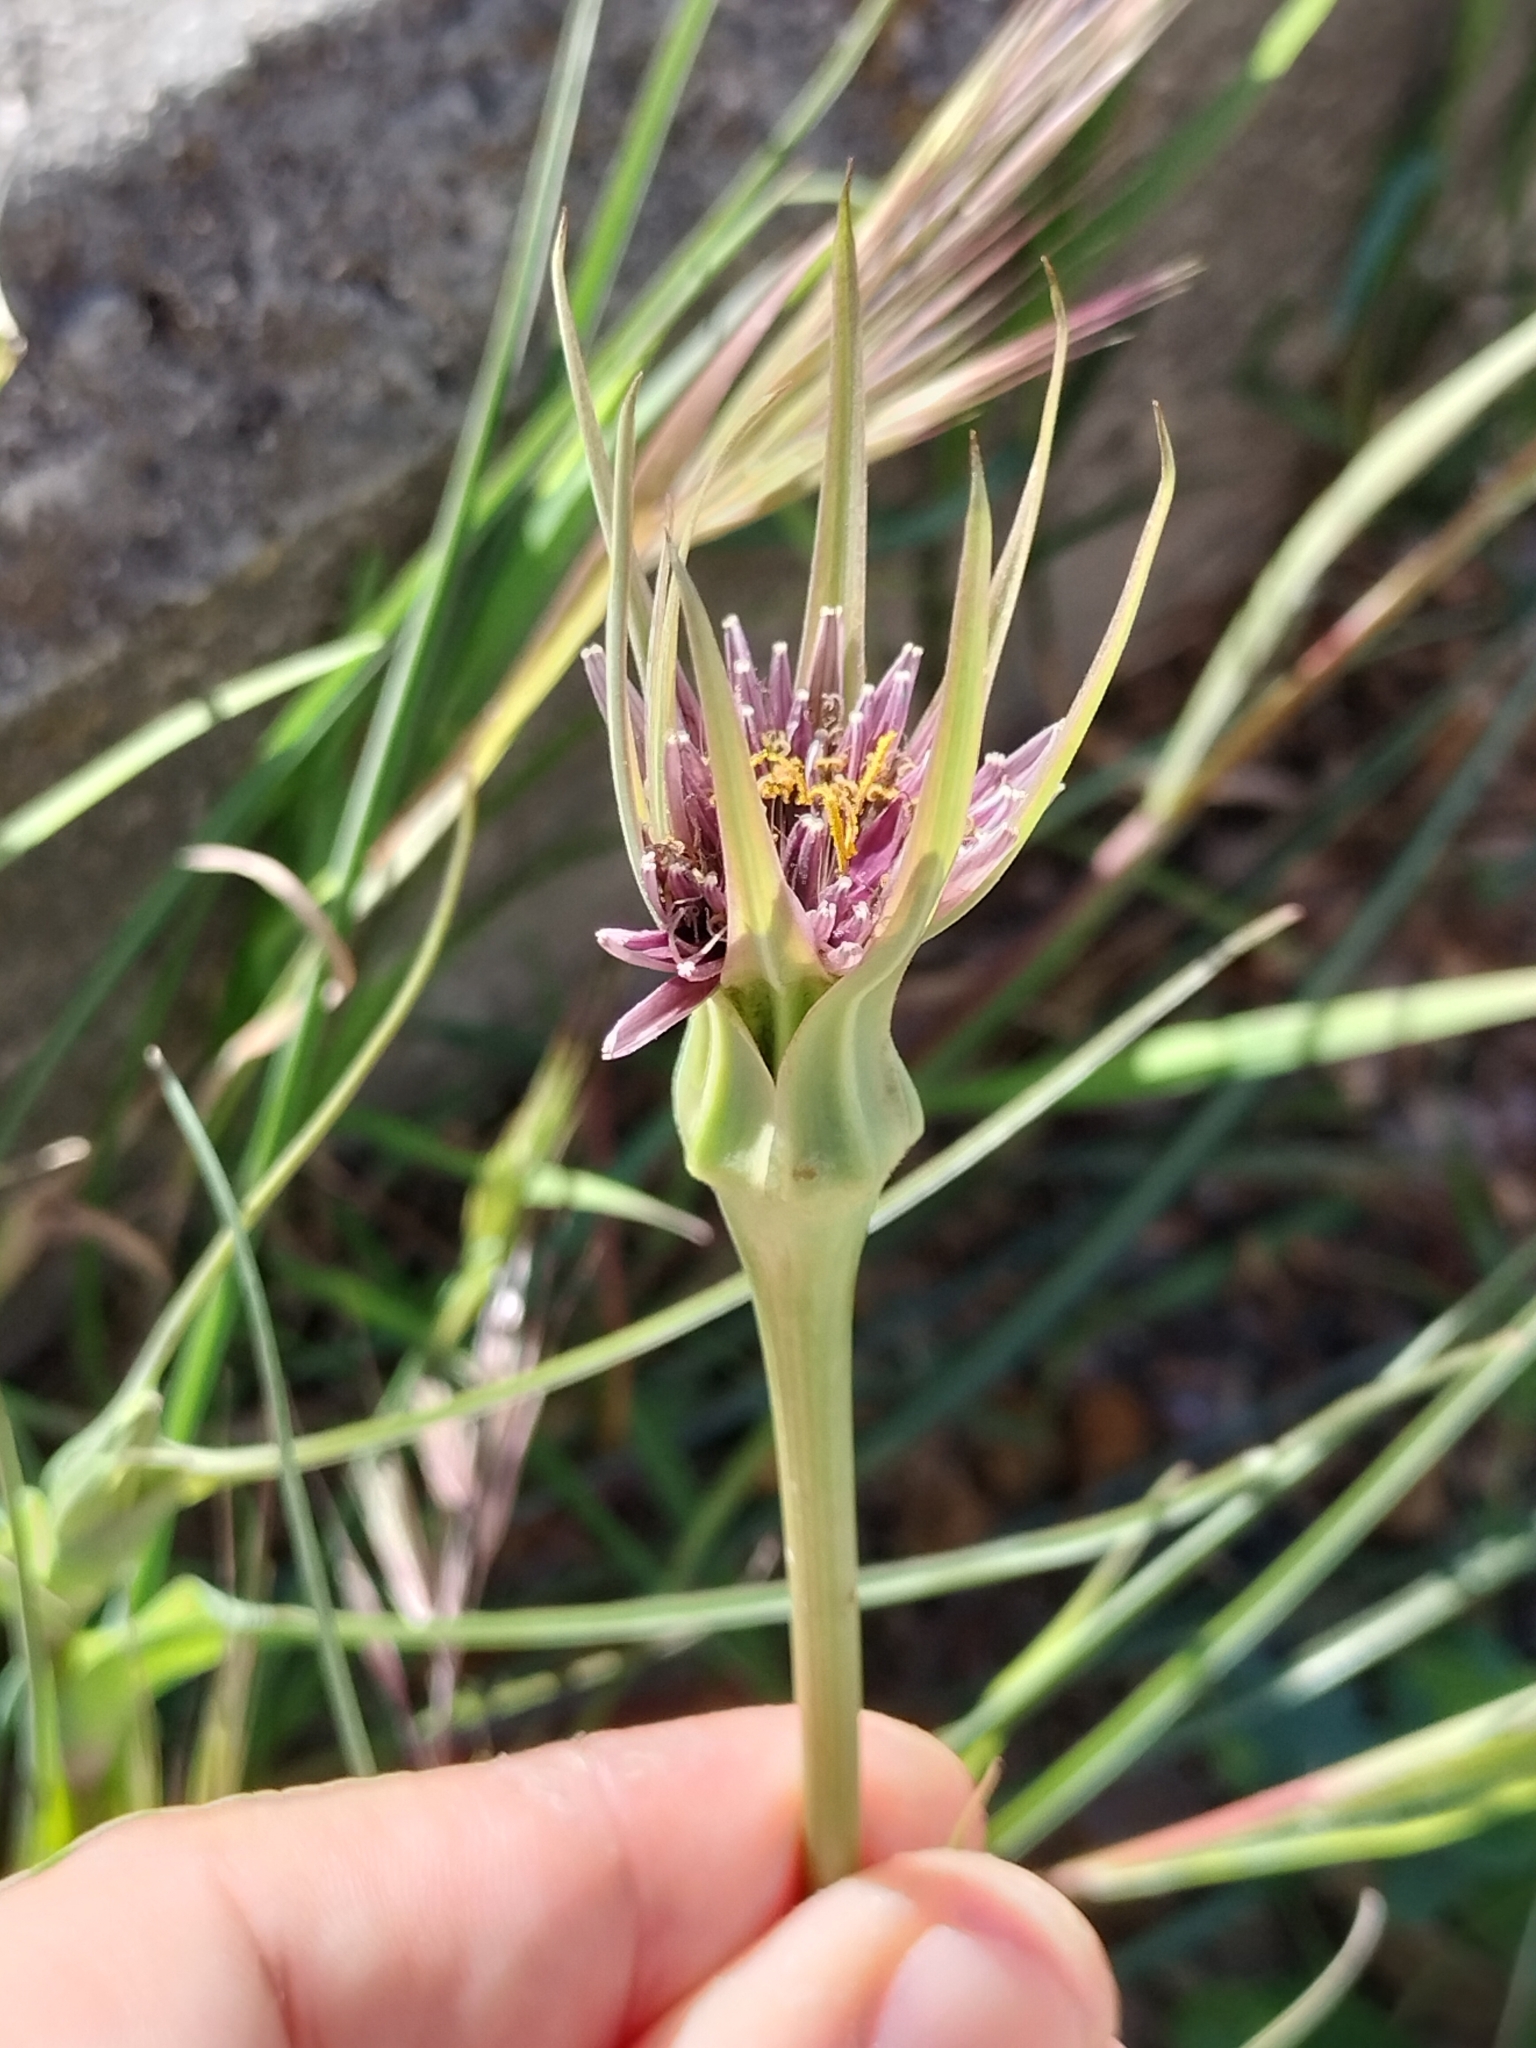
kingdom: Plantae
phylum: Tracheophyta
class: Magnoliopsida
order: Asterales
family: Asteraceae
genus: Tragopogon
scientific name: Tragopogon porrifolius
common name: Salsify
